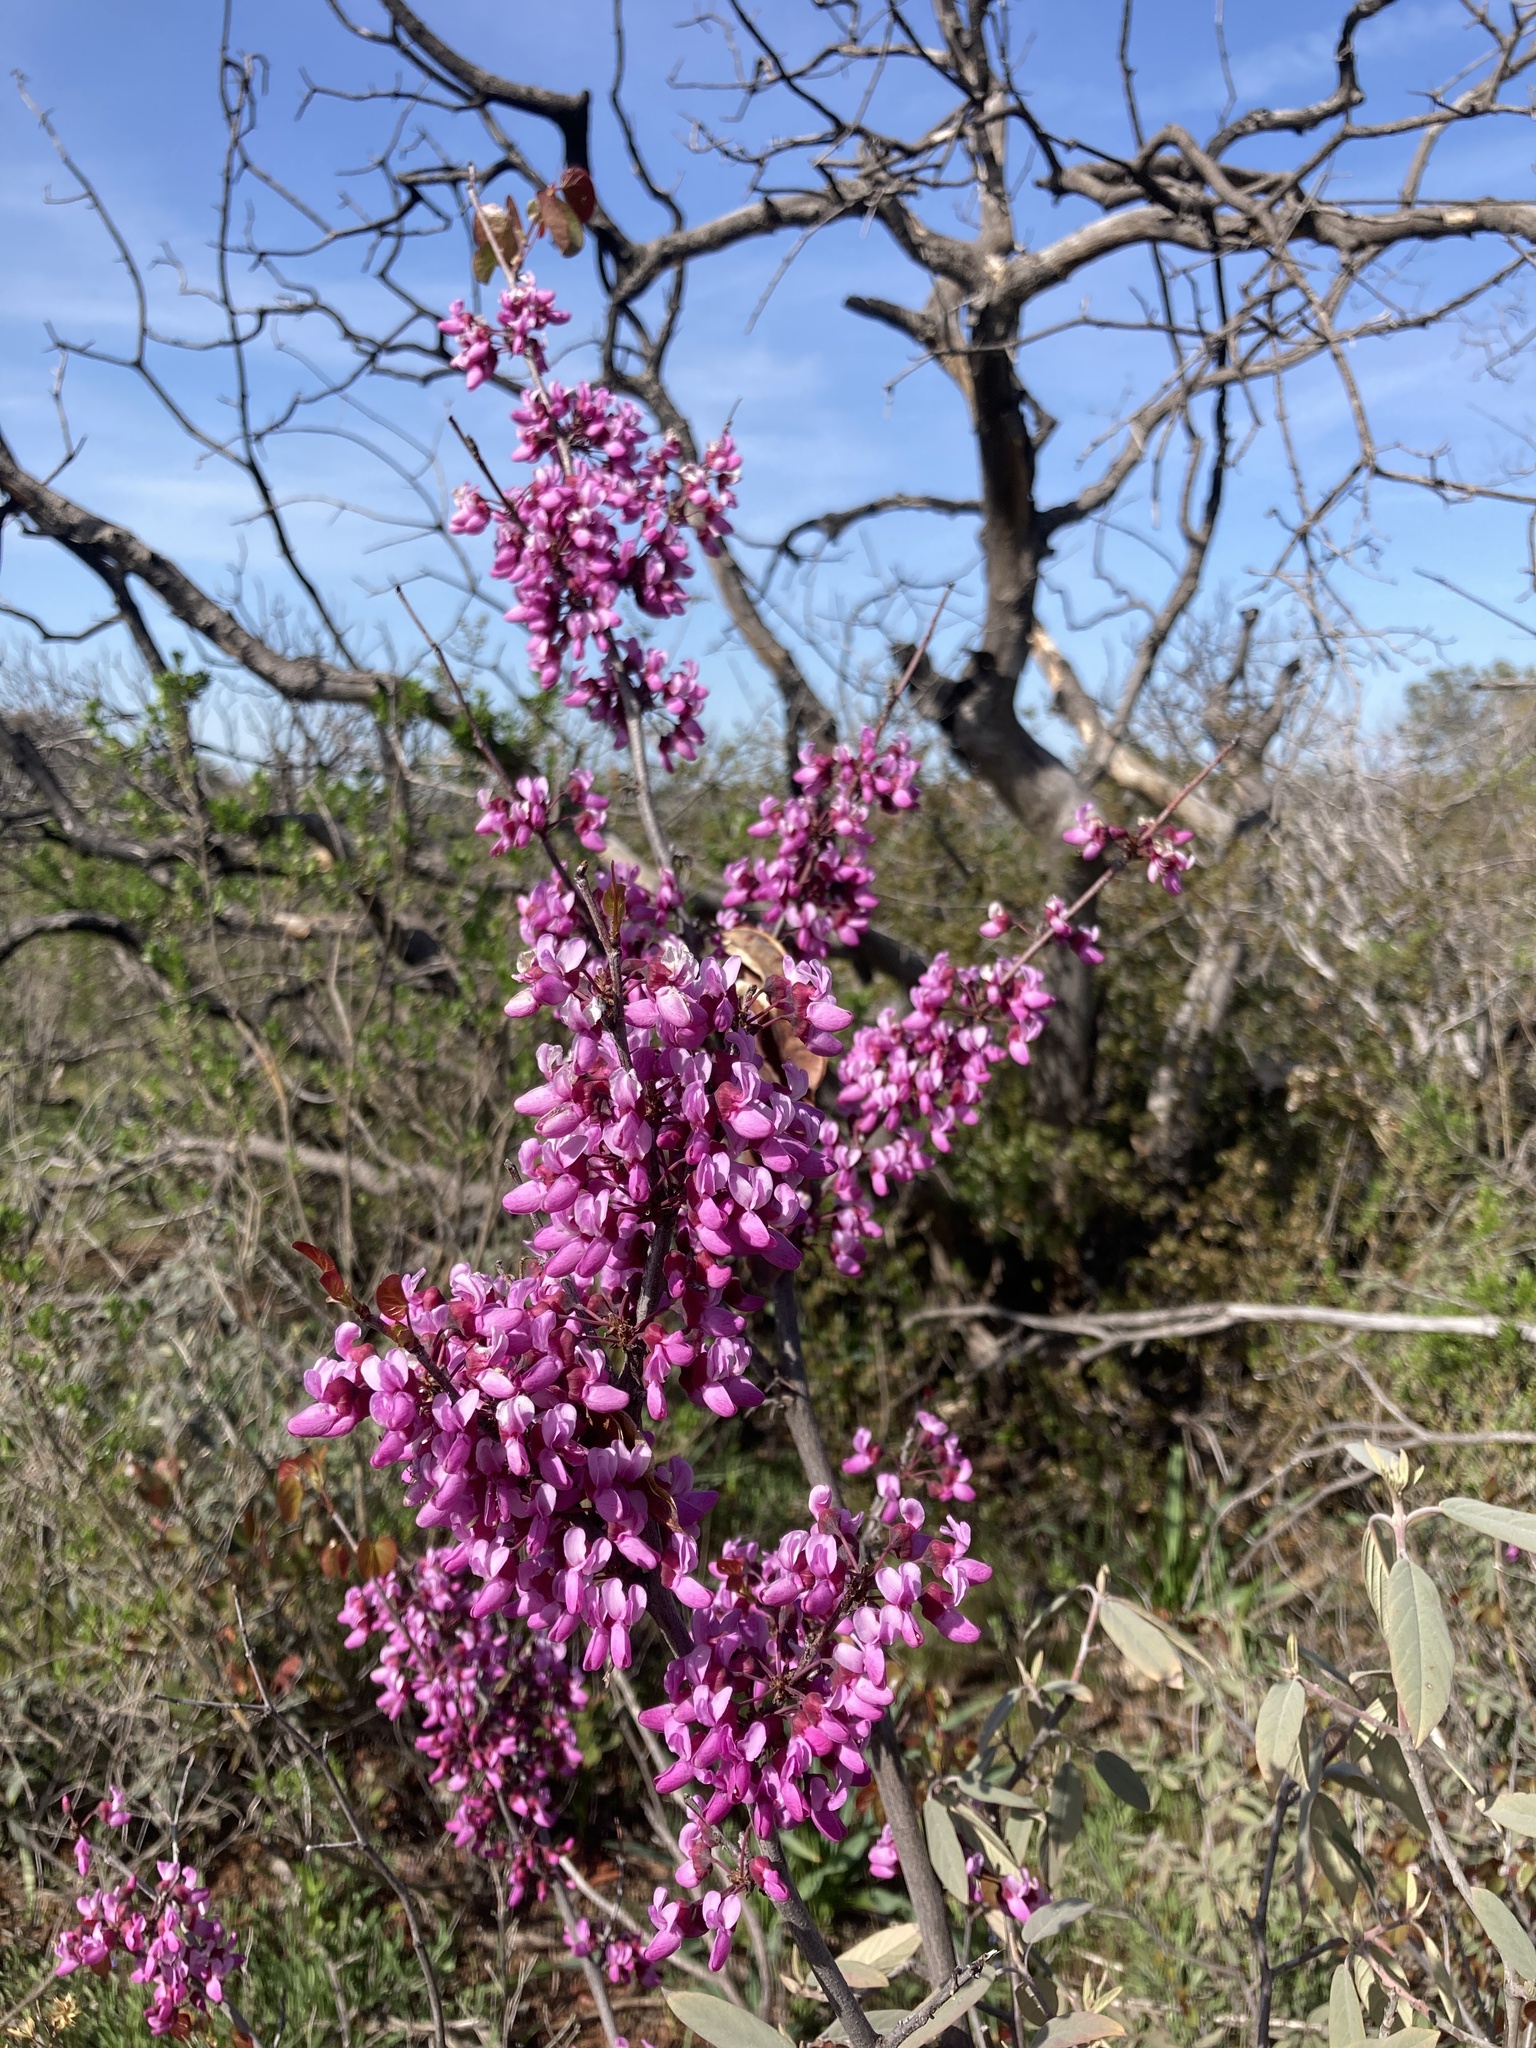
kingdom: Plantae
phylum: Tracheophyta
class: Magnoliopsida
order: Fabales
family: Fabaceae
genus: Cercis
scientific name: Cercis occidentalis
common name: California redbud
